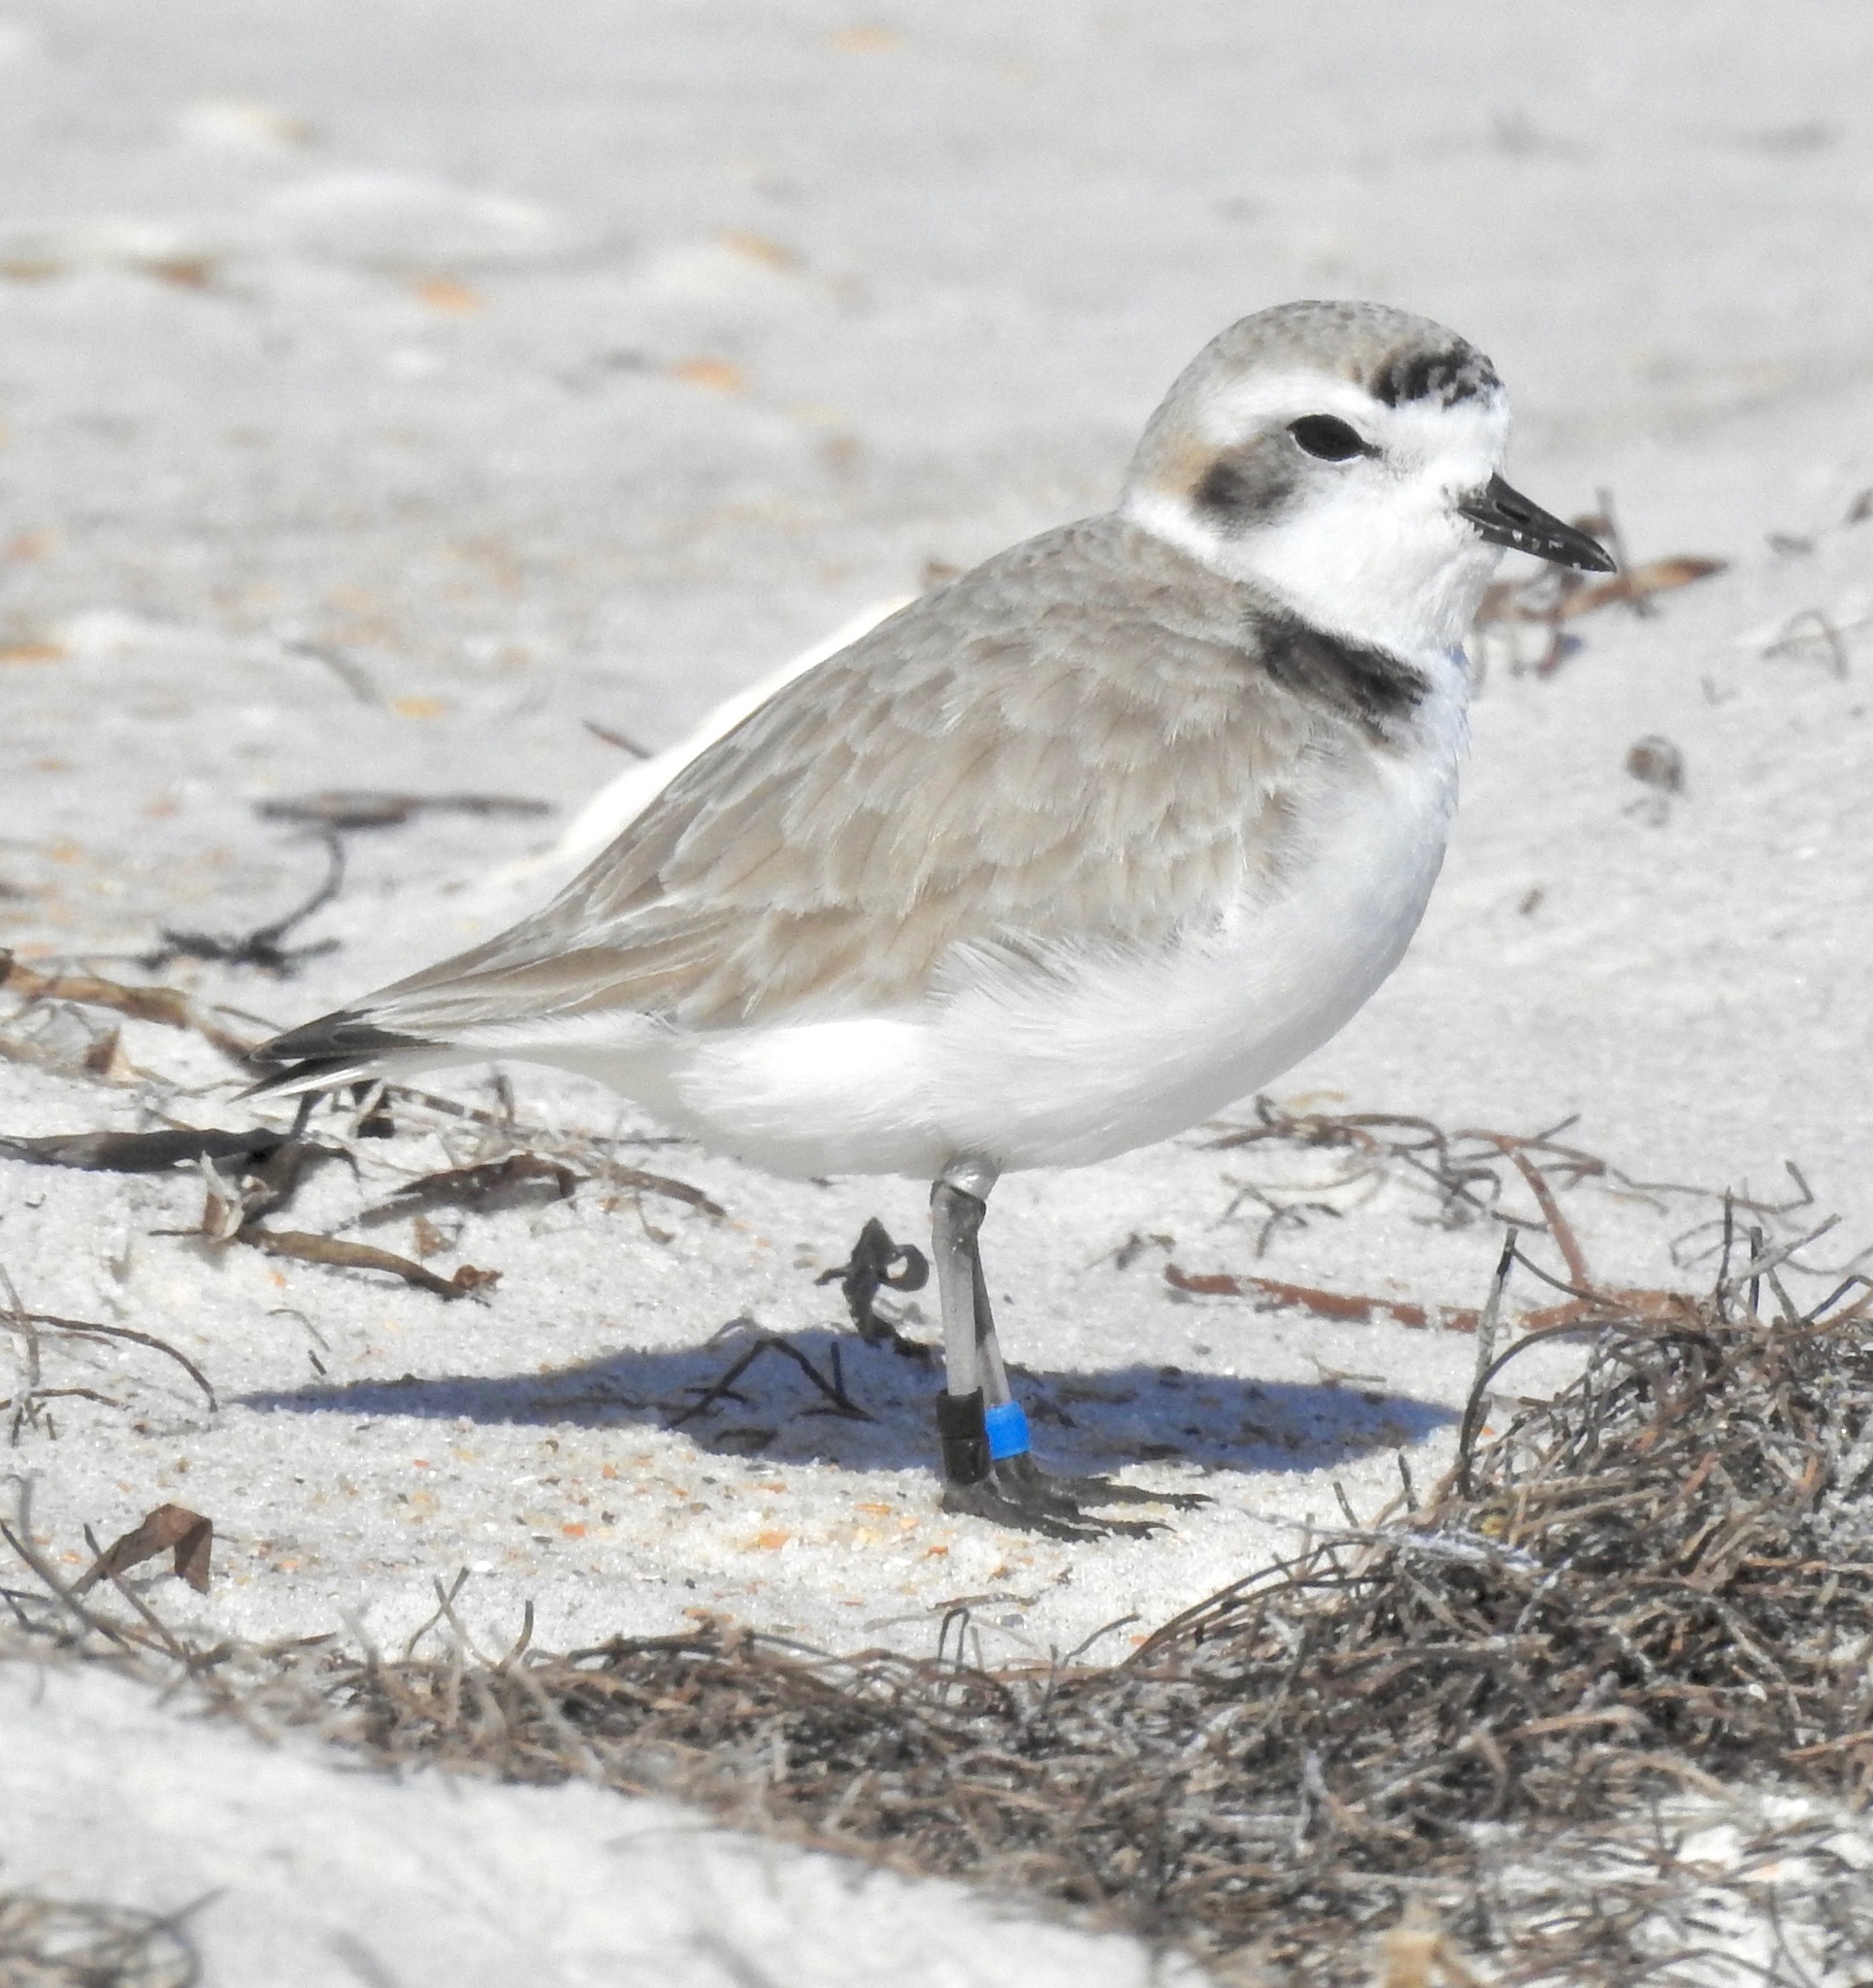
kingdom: Animalia
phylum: Chordata
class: Aves
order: Charadriiformes
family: Charadriidae
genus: Anarhynchus
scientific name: Anarhynchus
